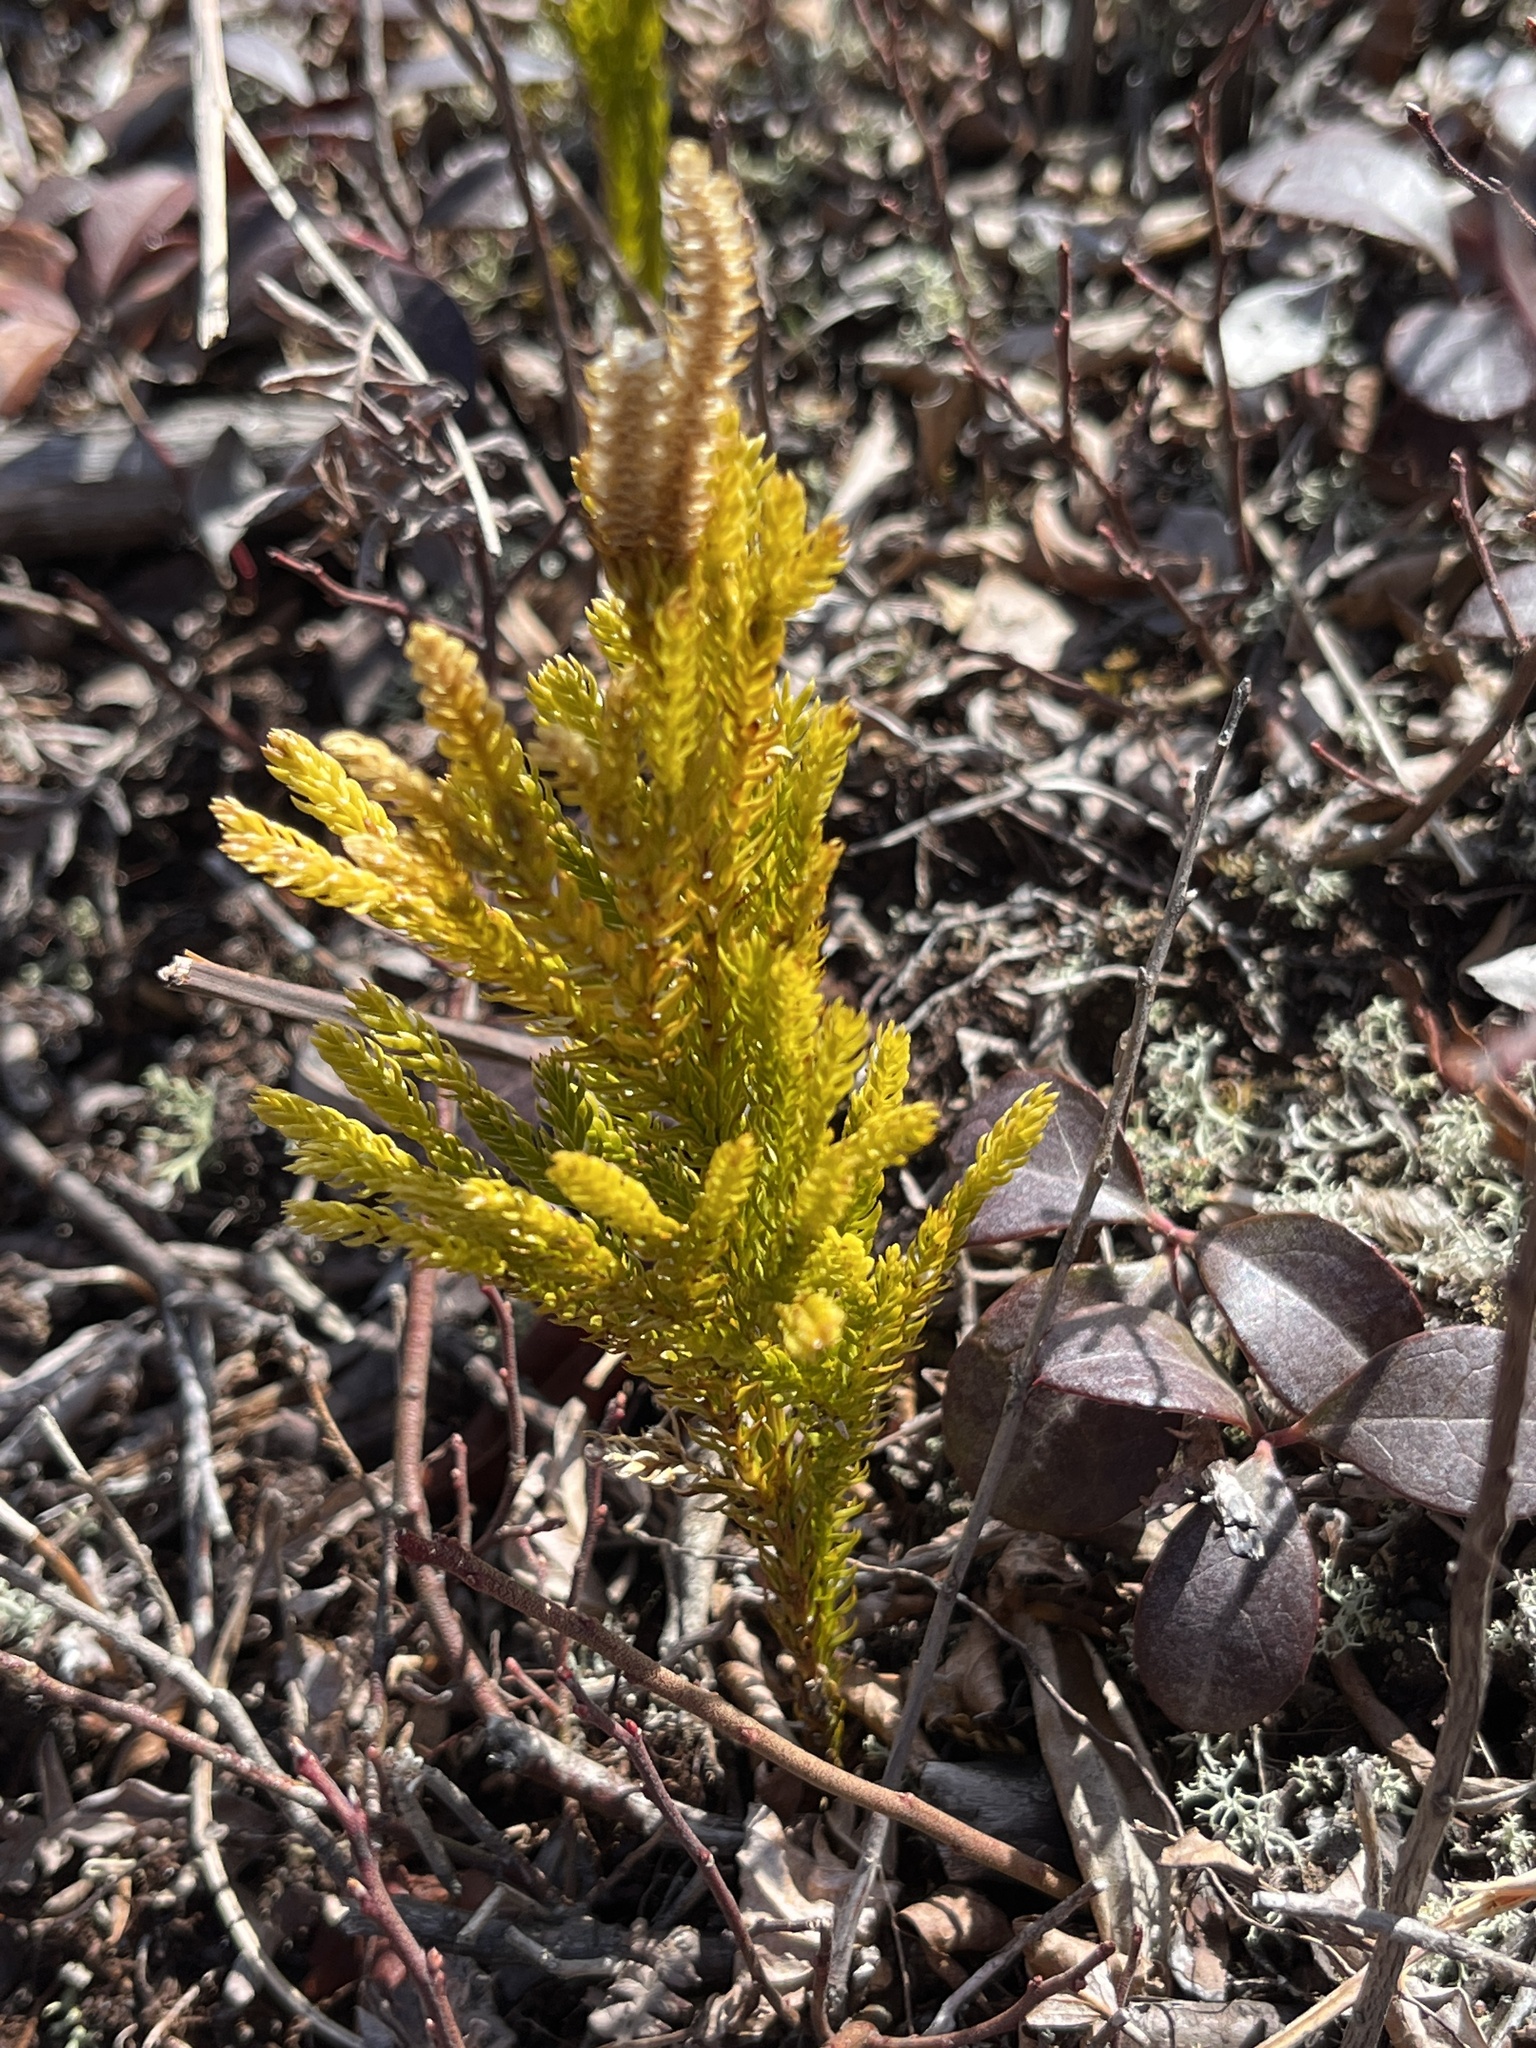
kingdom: Plantae
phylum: Tracheophyta
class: Lycopodiopsida
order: Lycopodiales
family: Lycopodiaceae
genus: Dendrolycopodium
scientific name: Dendrolycopodium hickeyi
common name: Hickey's clubmoss
